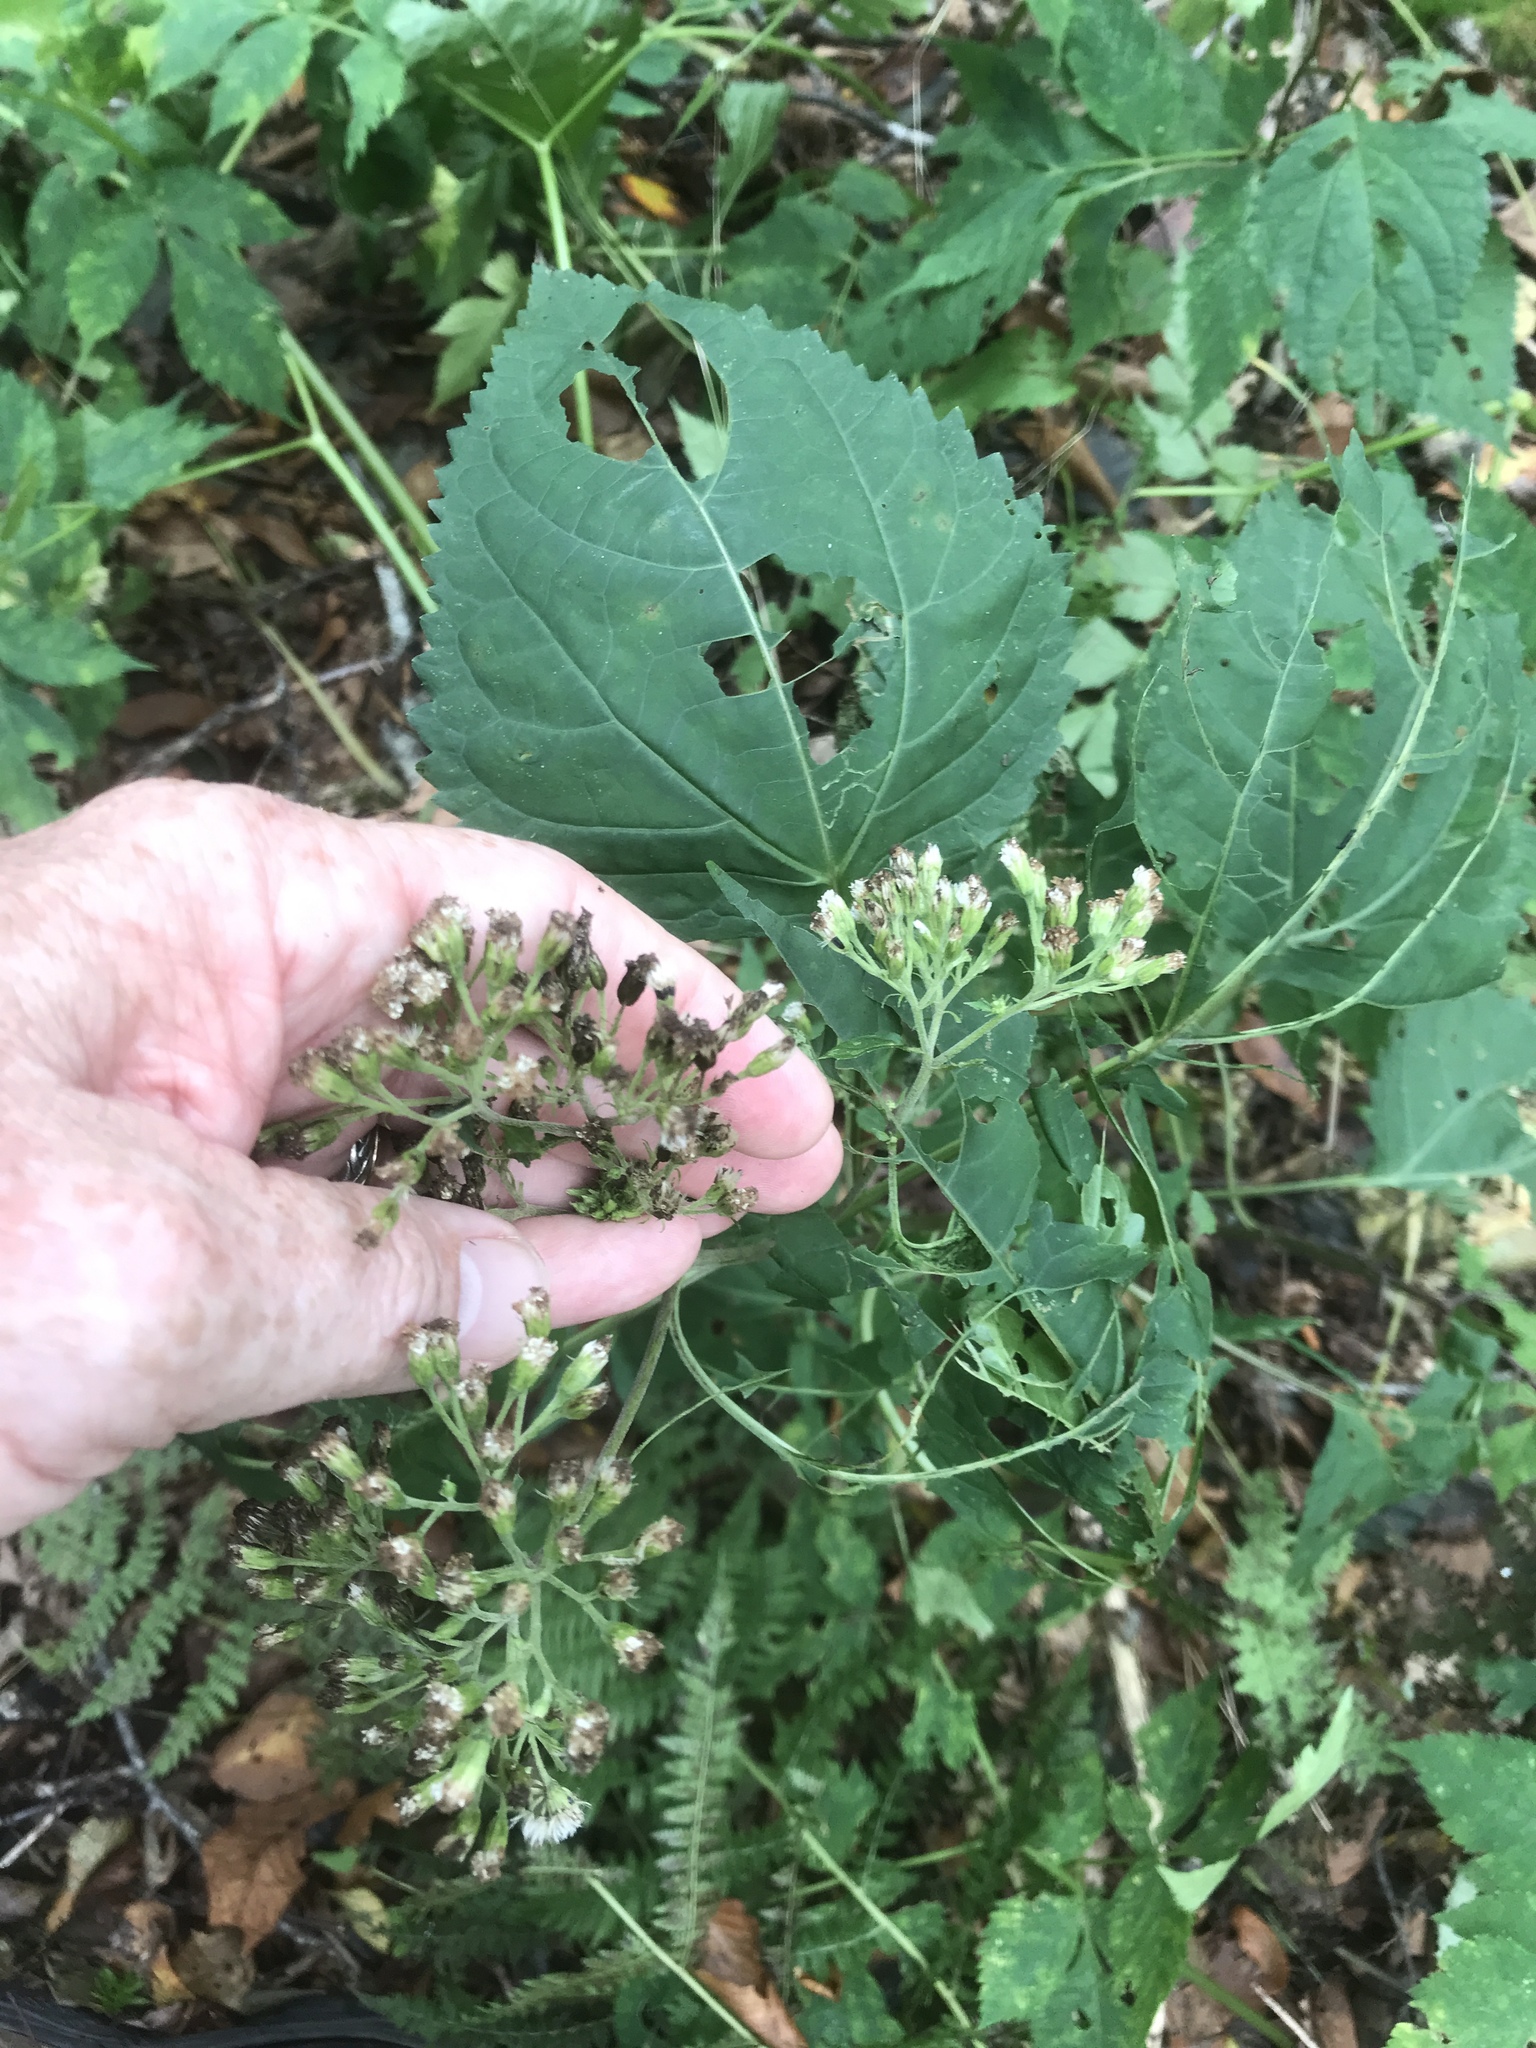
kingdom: Plantae
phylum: Tracheophyta
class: Magnoliopsida
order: Asterales
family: Asteraceae
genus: Ageratina
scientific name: Ageratina roanensis
